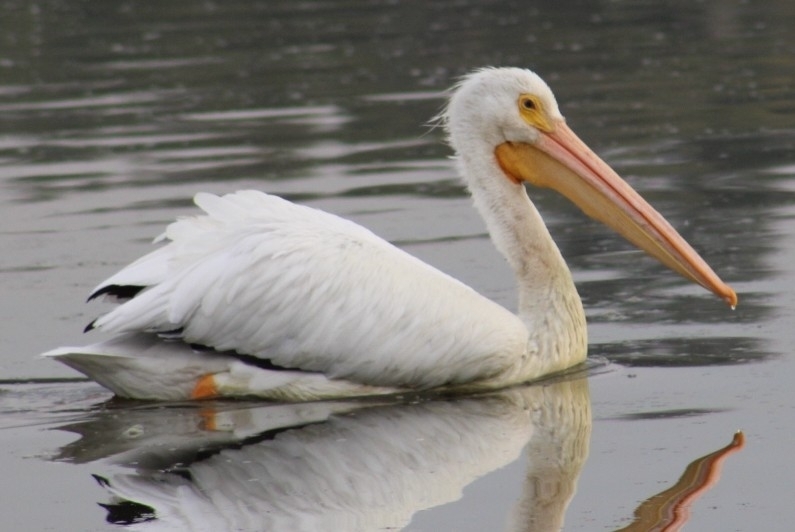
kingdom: Animalia
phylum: Chordata
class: Aves
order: Pelecaniformes
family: Pelecanidae
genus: Pelecanus
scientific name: Pelecanus erythrorhynchos
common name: American white pelican
